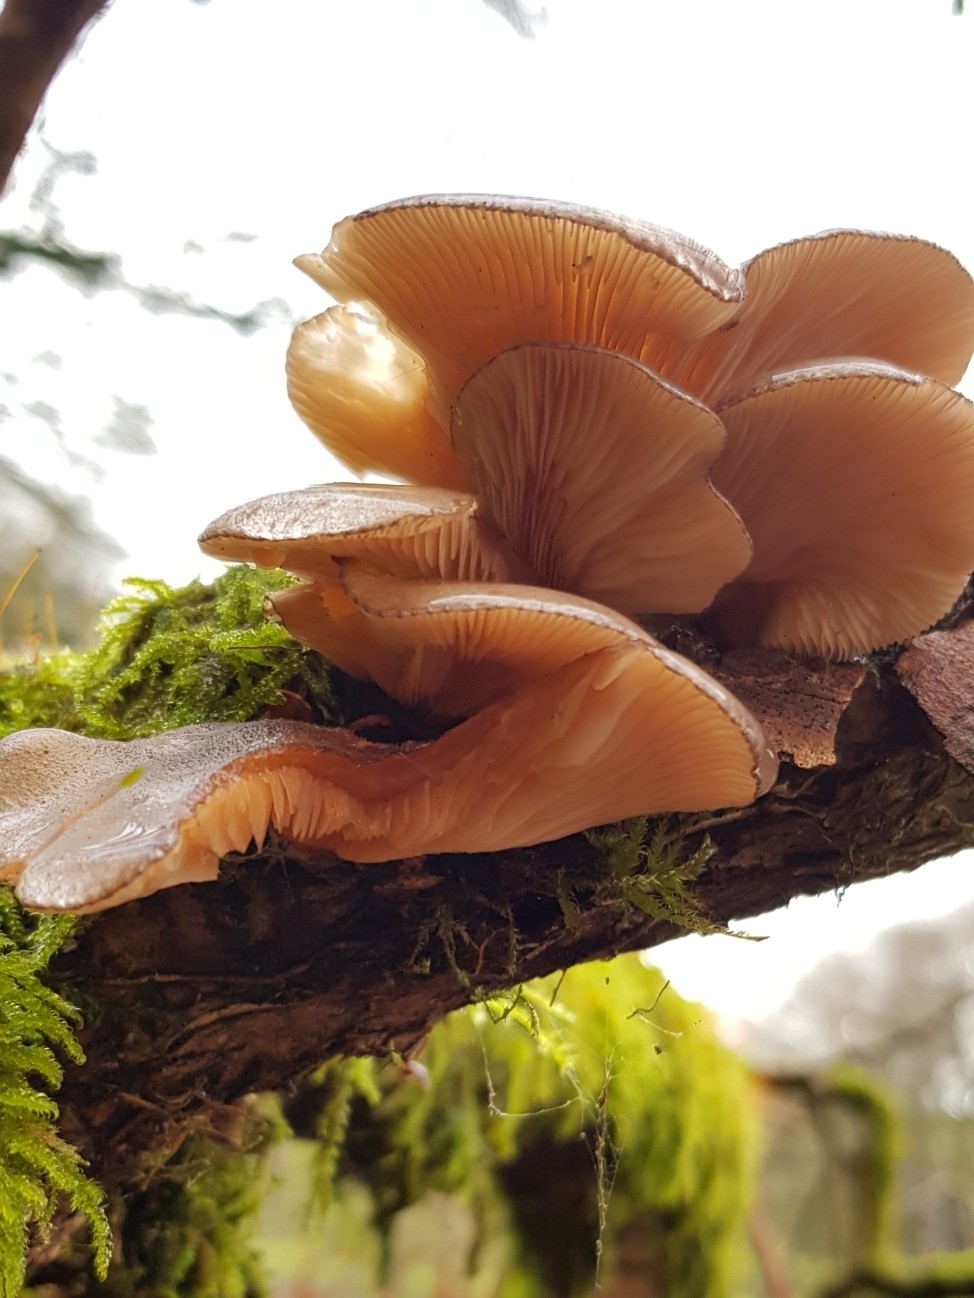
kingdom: Fungi
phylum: Basidiomycota
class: Agaricomycetes
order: Agaricales
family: Sarcomyxaceae
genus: Sarcomyxa
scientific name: Sarcomyxa serotina
